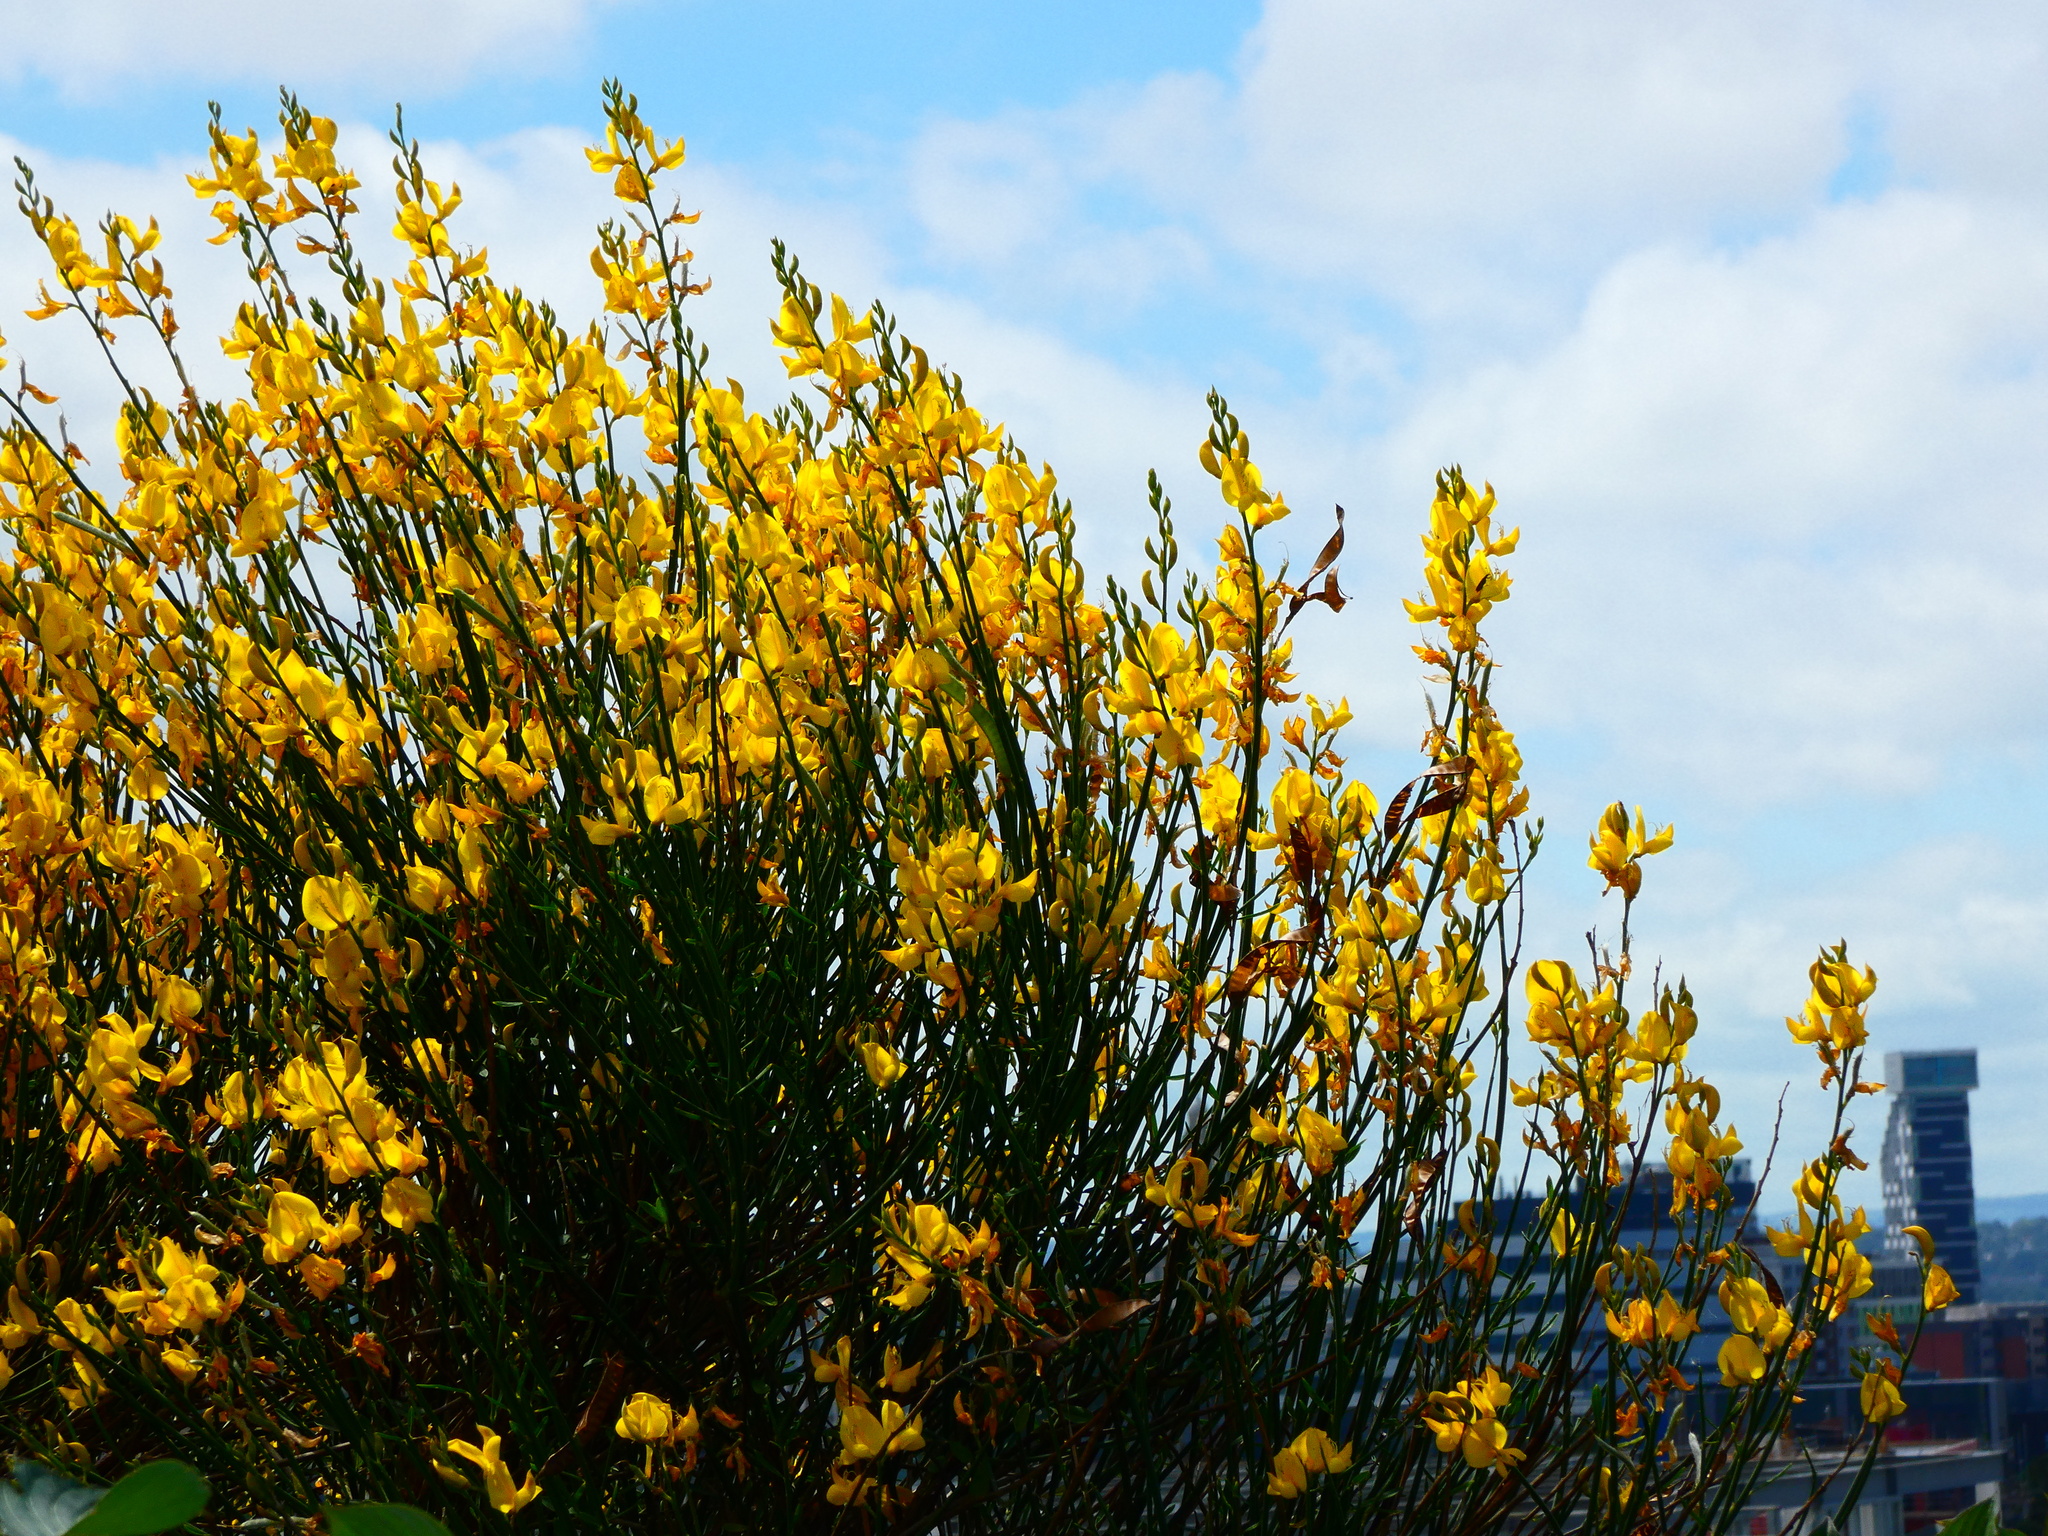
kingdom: Plantae
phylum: Tracheophyta
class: Magnoliopsida
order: Fabales
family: Fabaceae
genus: Spartium
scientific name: Spartium junceum
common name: Spanish broom
